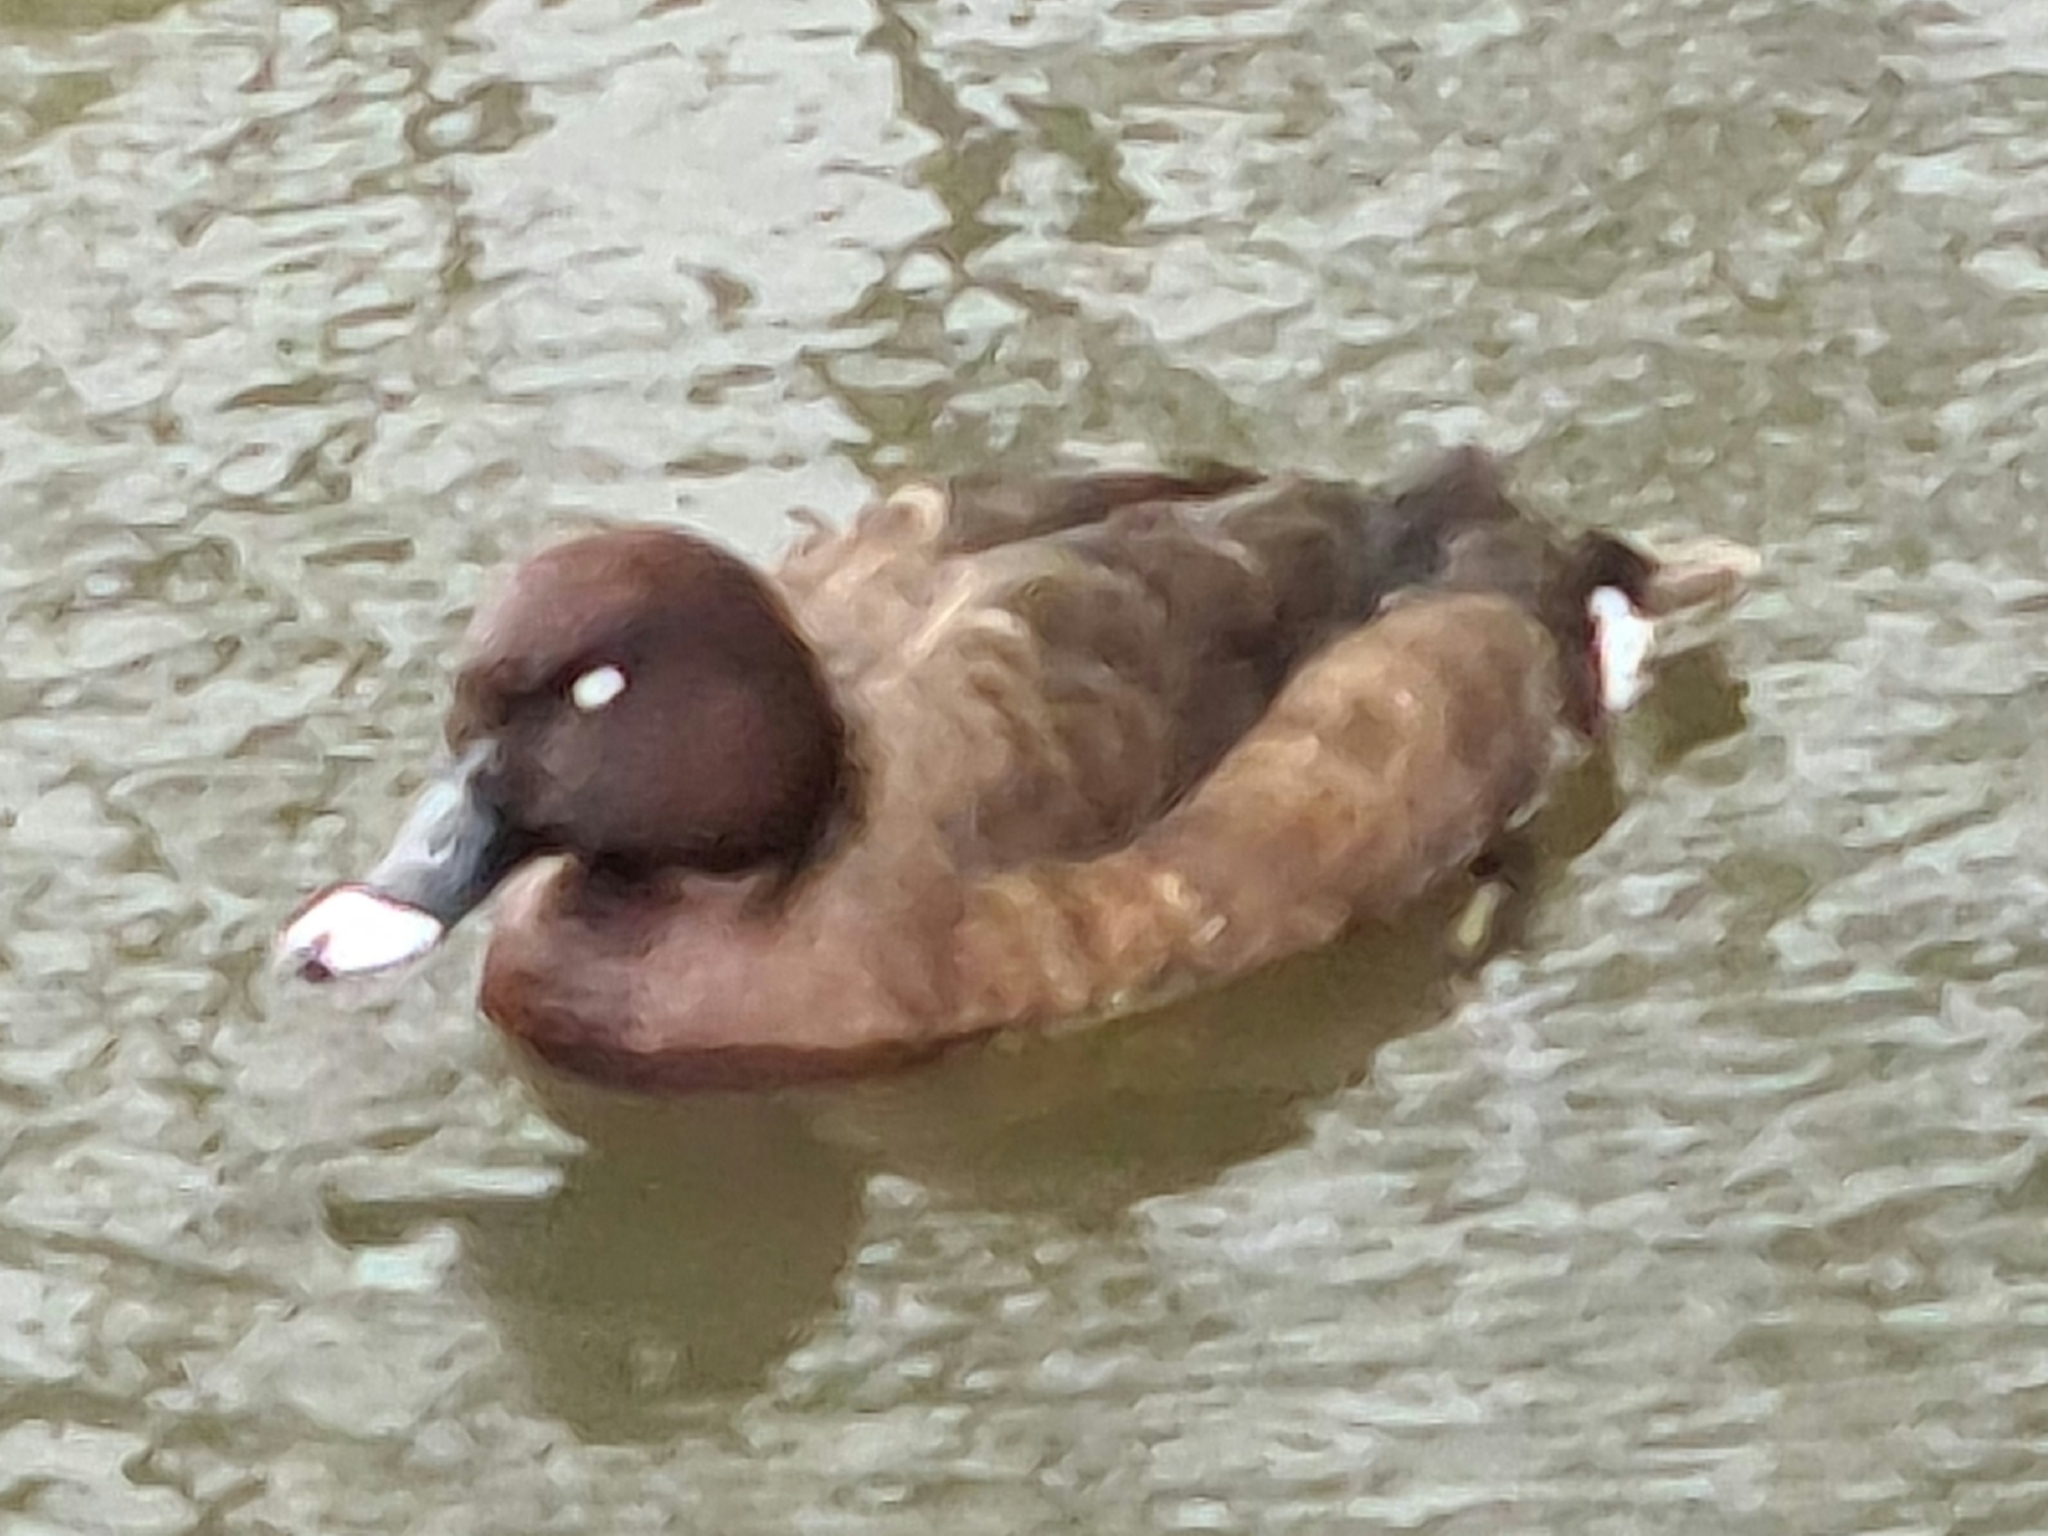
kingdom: Animalia
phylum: Chordata
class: Aves
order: Anseriformes
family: Anatidae
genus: Aythya
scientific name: Aythya australis
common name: Hardhead
